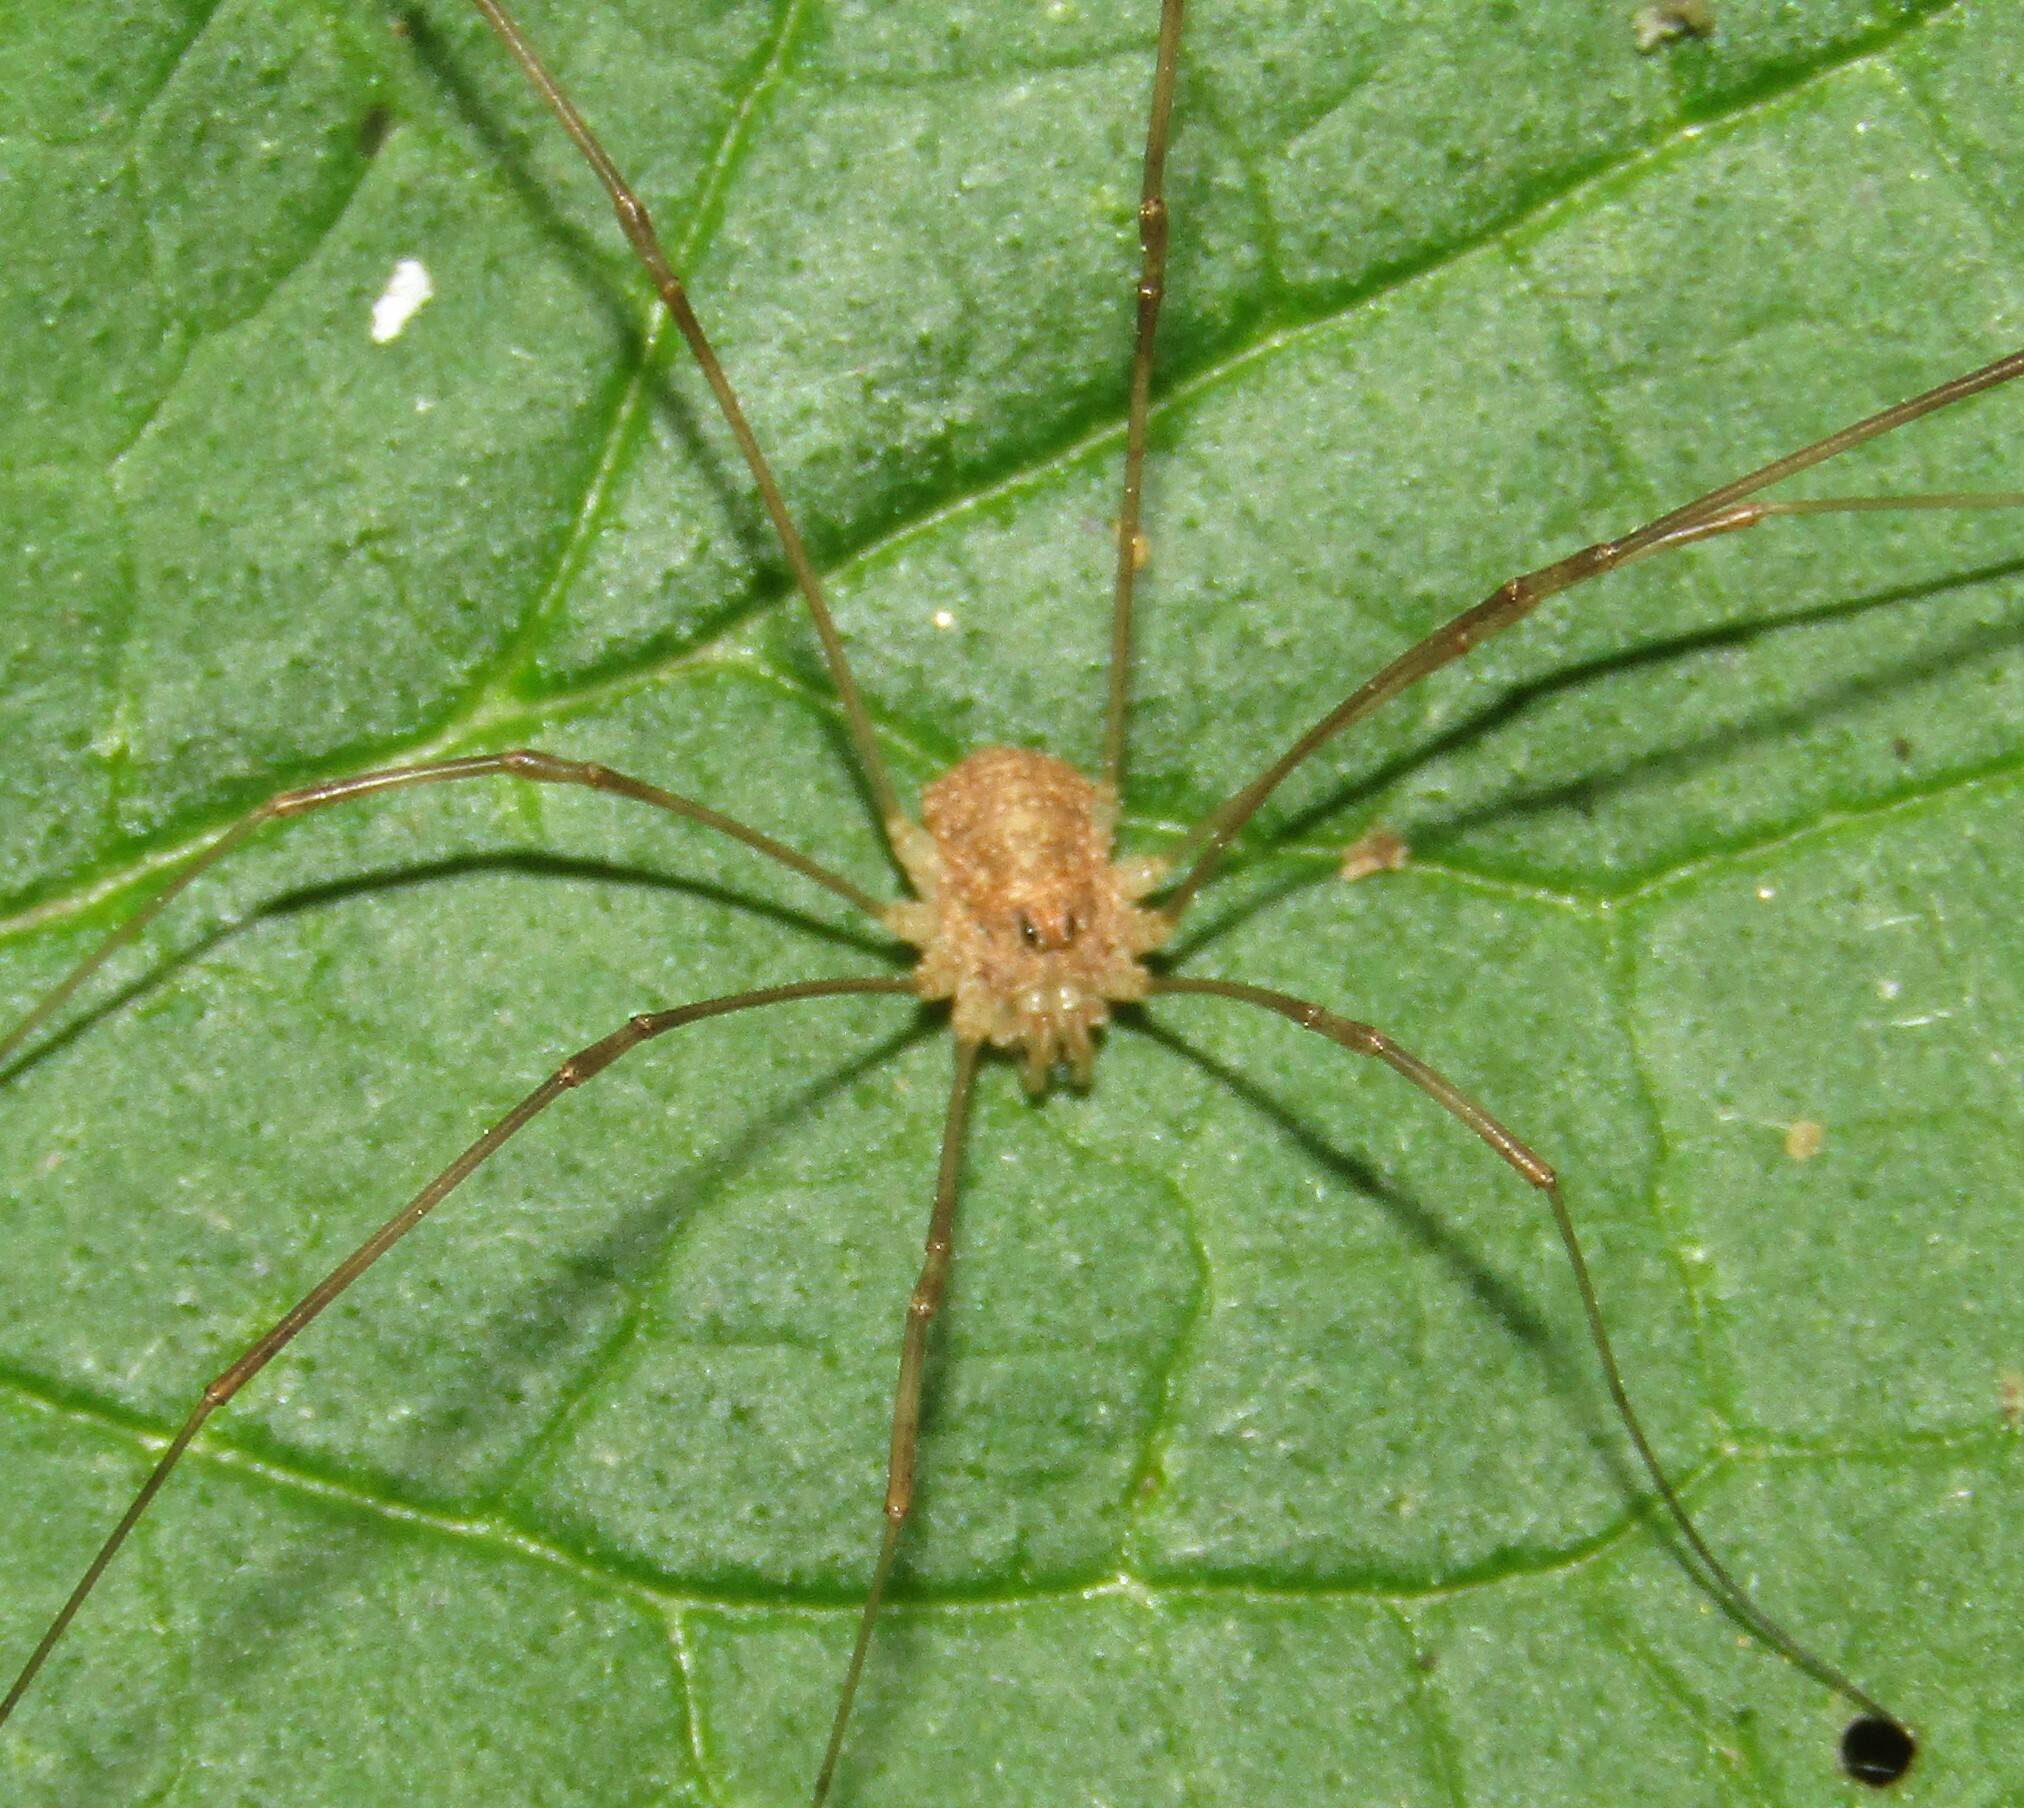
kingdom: Animalia
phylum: Arthropoda
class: Arachnida
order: Opiliones
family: Phalangiidae
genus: Rilaena
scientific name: Rilaena triangularis
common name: Spring harvestman
